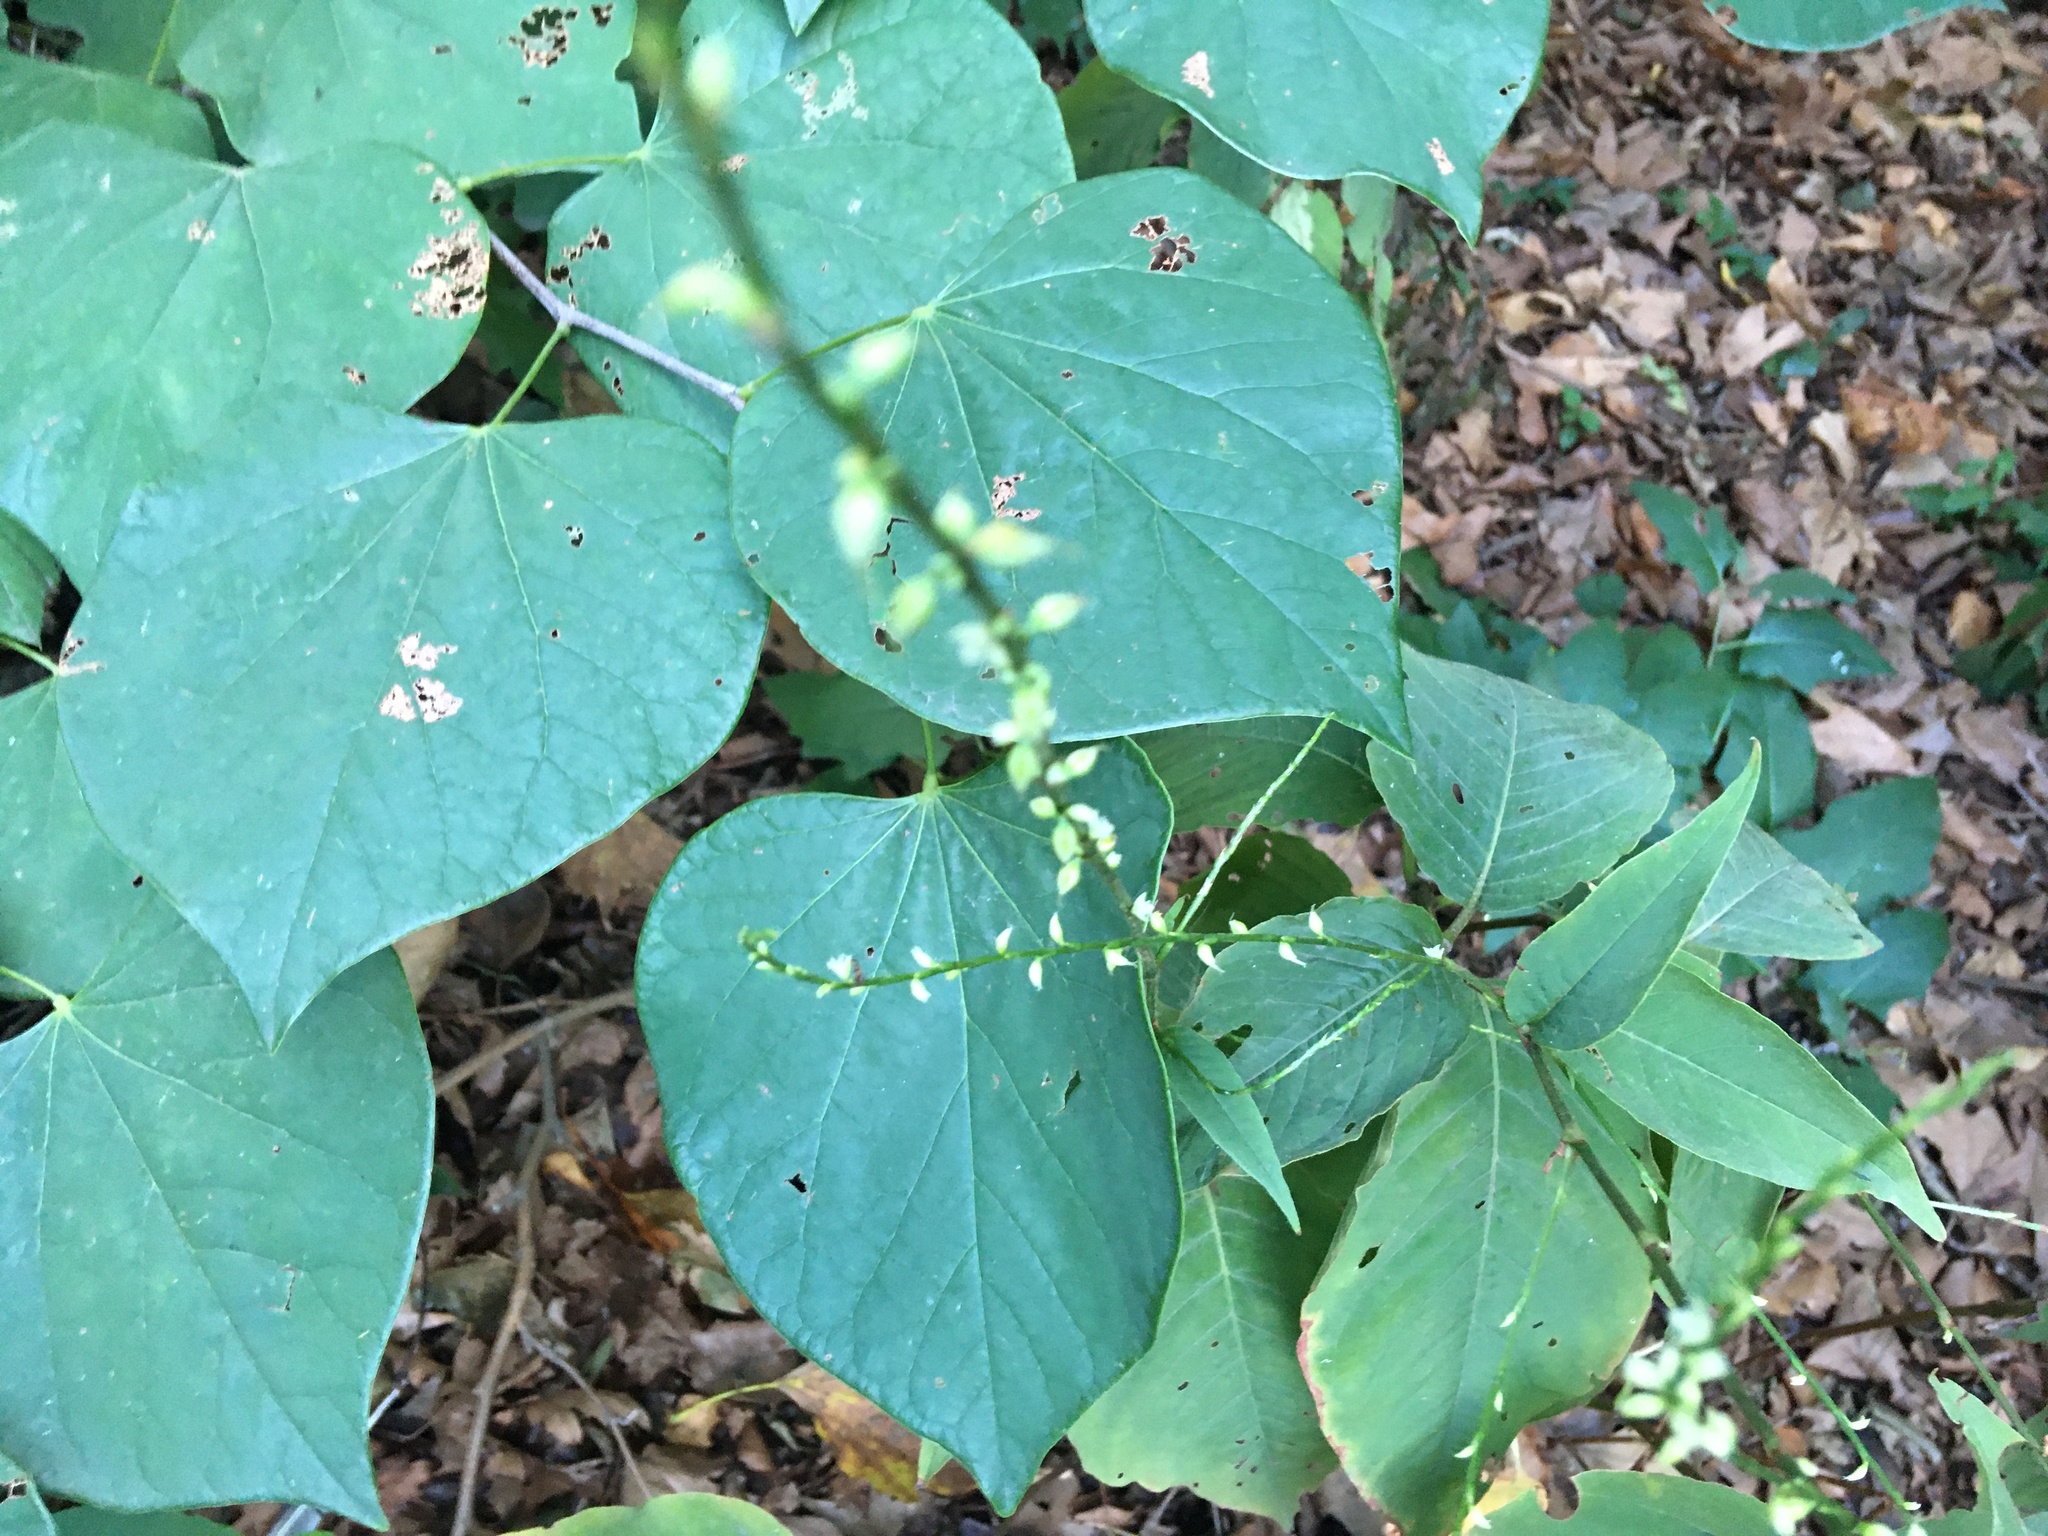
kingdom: Plantae
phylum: Tracheophyta
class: Magnoliopsida
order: Caryophyllales
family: Polygonaceae
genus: Persicaria
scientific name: Persicaria virginiana
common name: Jumpseed
